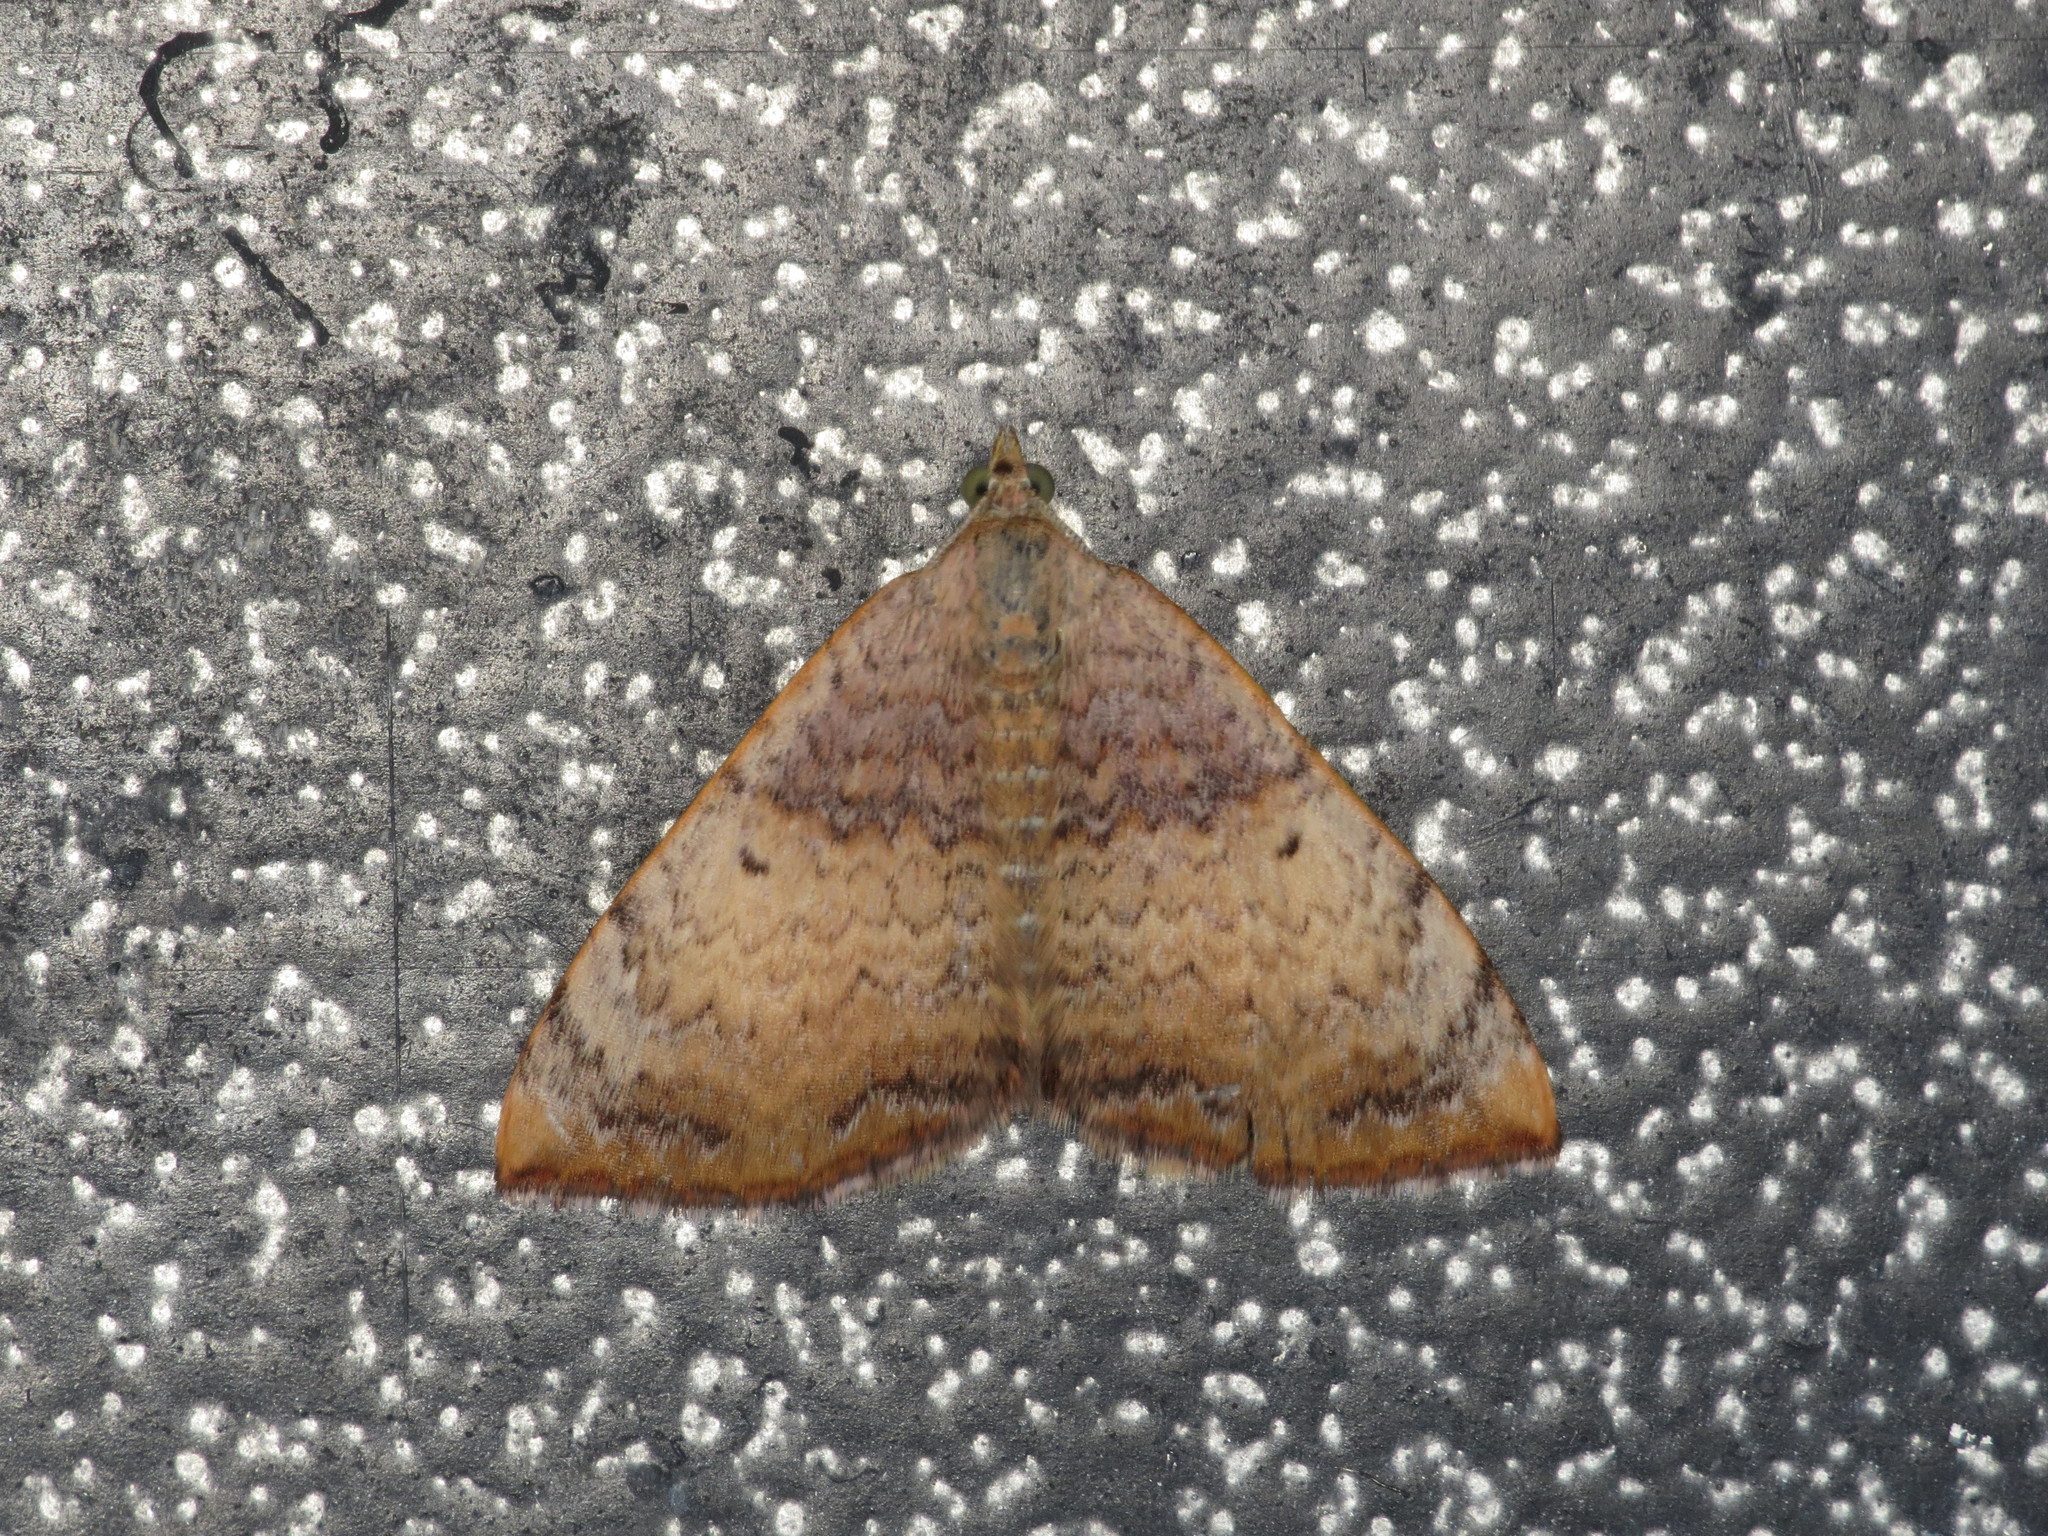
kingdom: Animalia
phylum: Arthropoda
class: Insecta
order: Lepidoptera
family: Geometridae
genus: Chrysolarentia
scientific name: Chrysolarentia mecynata
